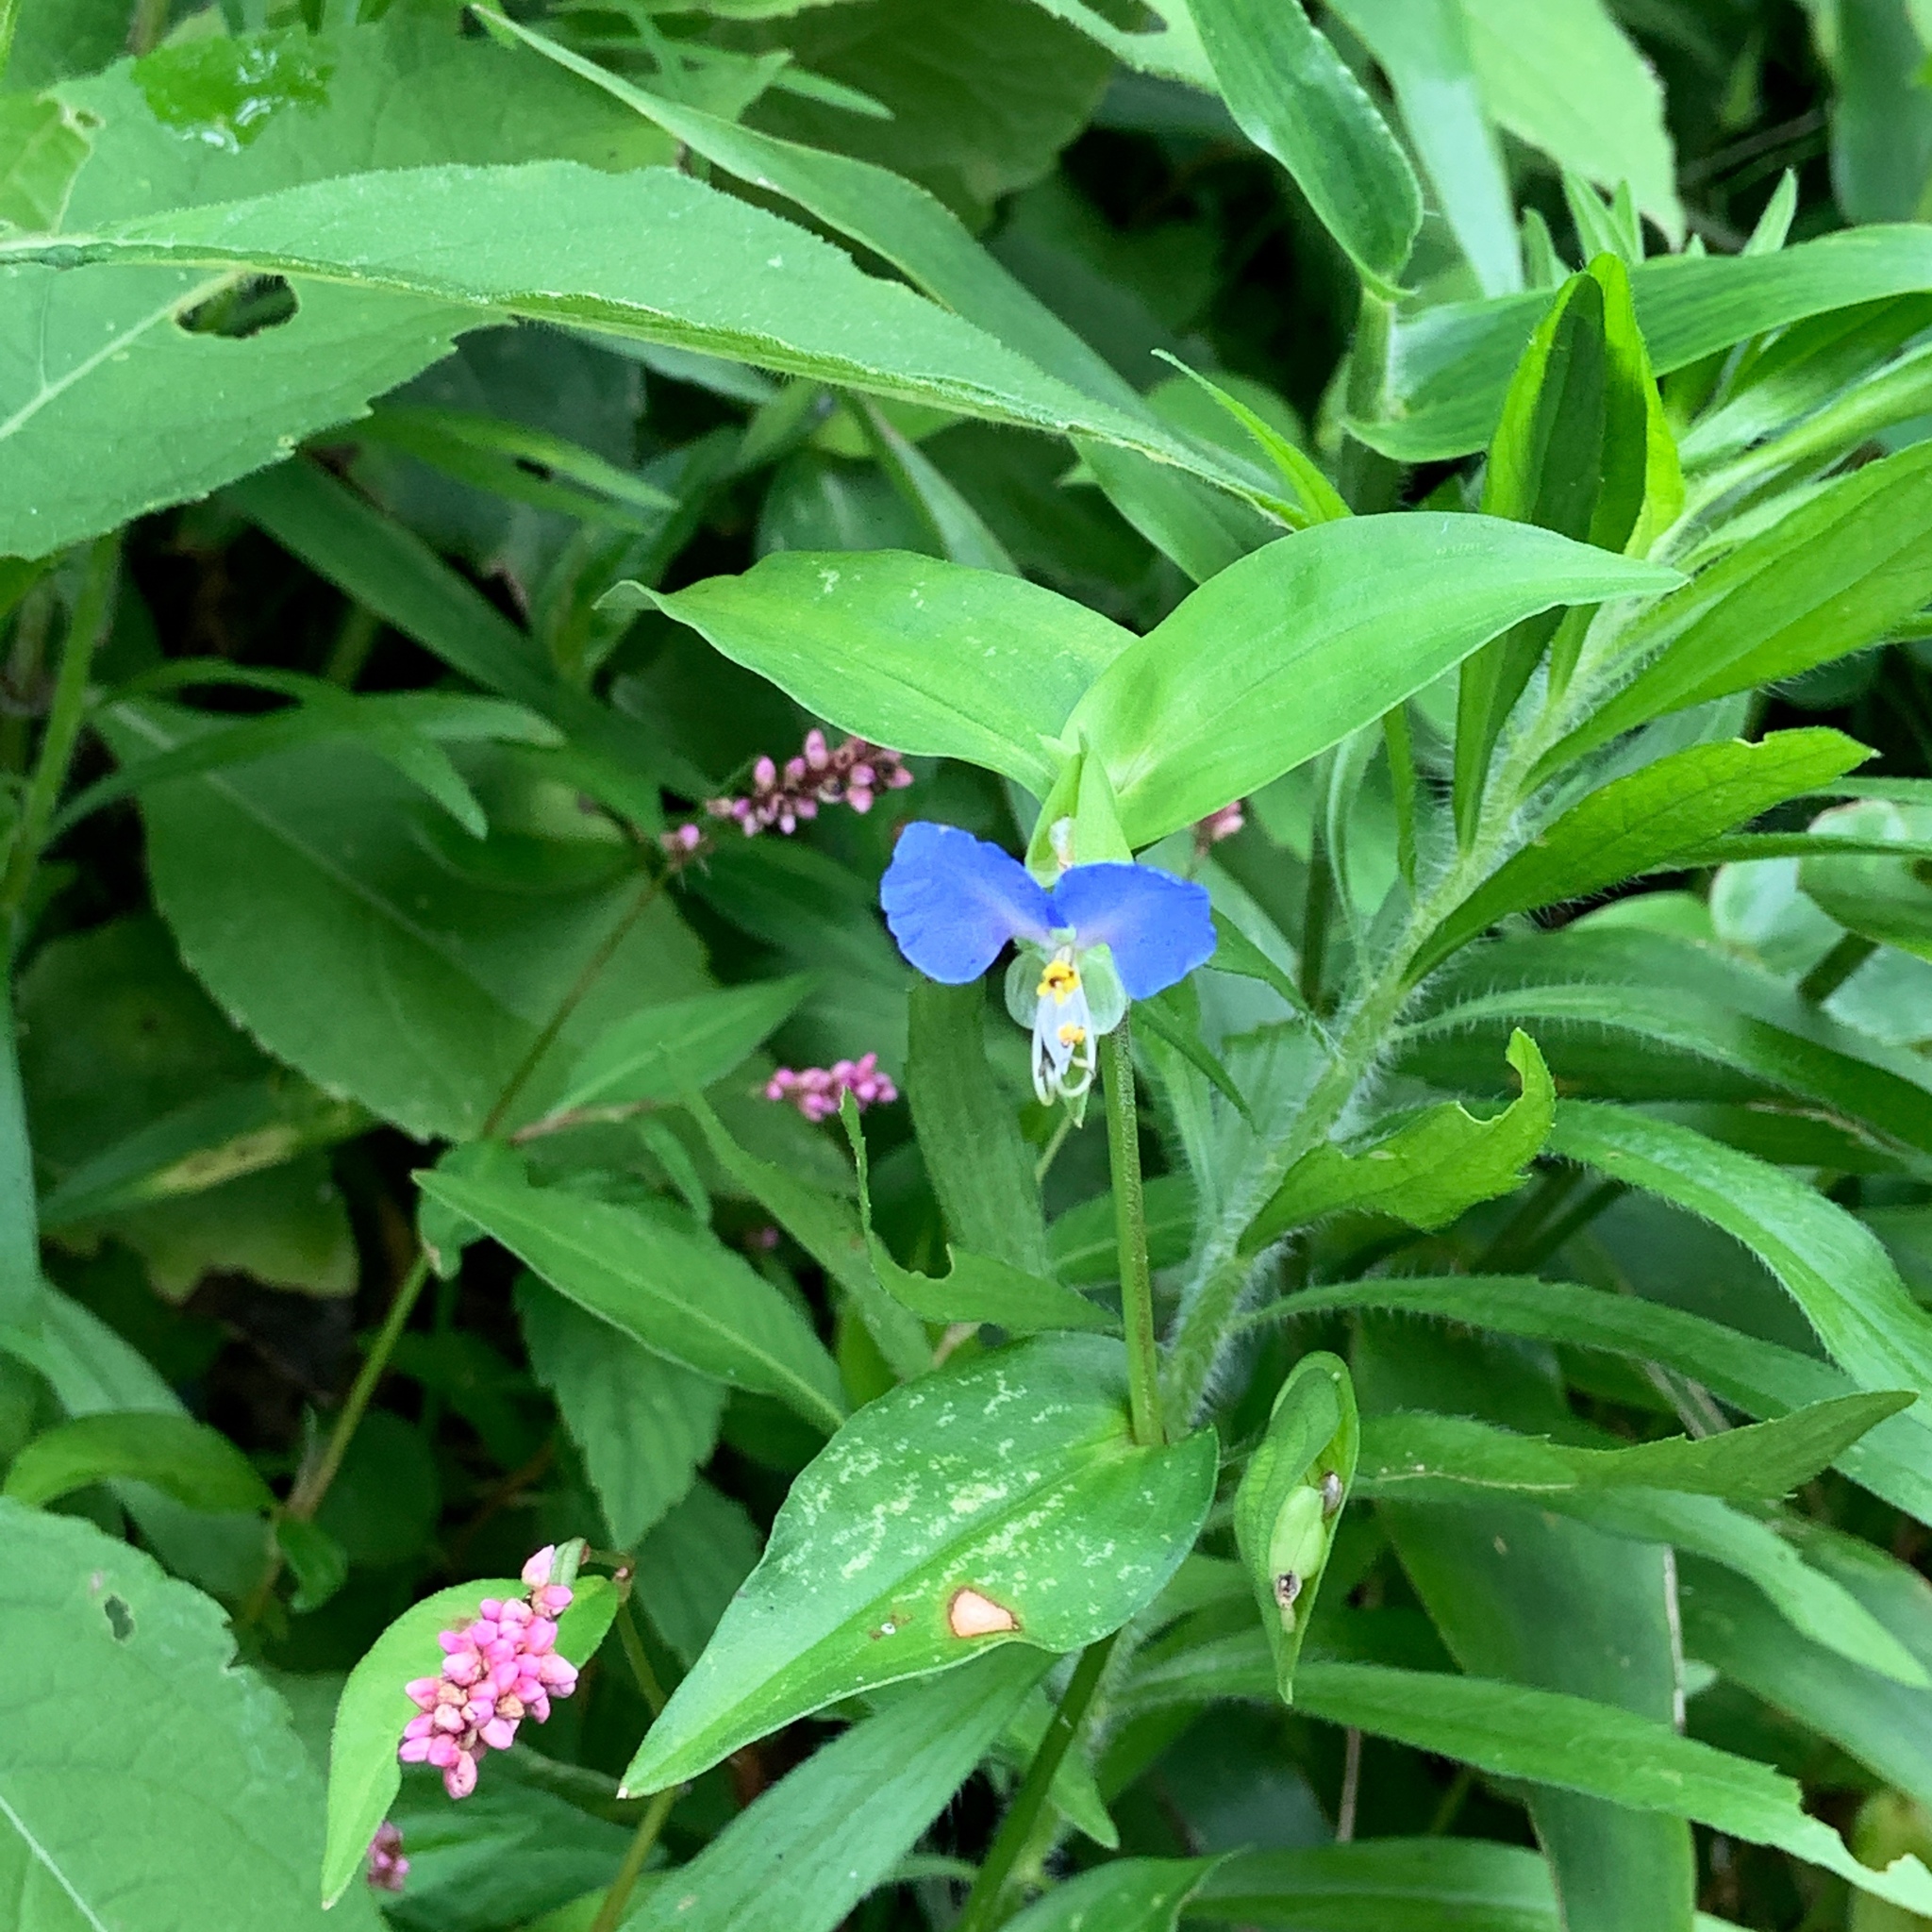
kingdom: Plantae
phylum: Tracheophyta
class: Liliopsida
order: Commelinales
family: Commelinaceae
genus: Commelina
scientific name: Commelina communis
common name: Asiatic dayflower
